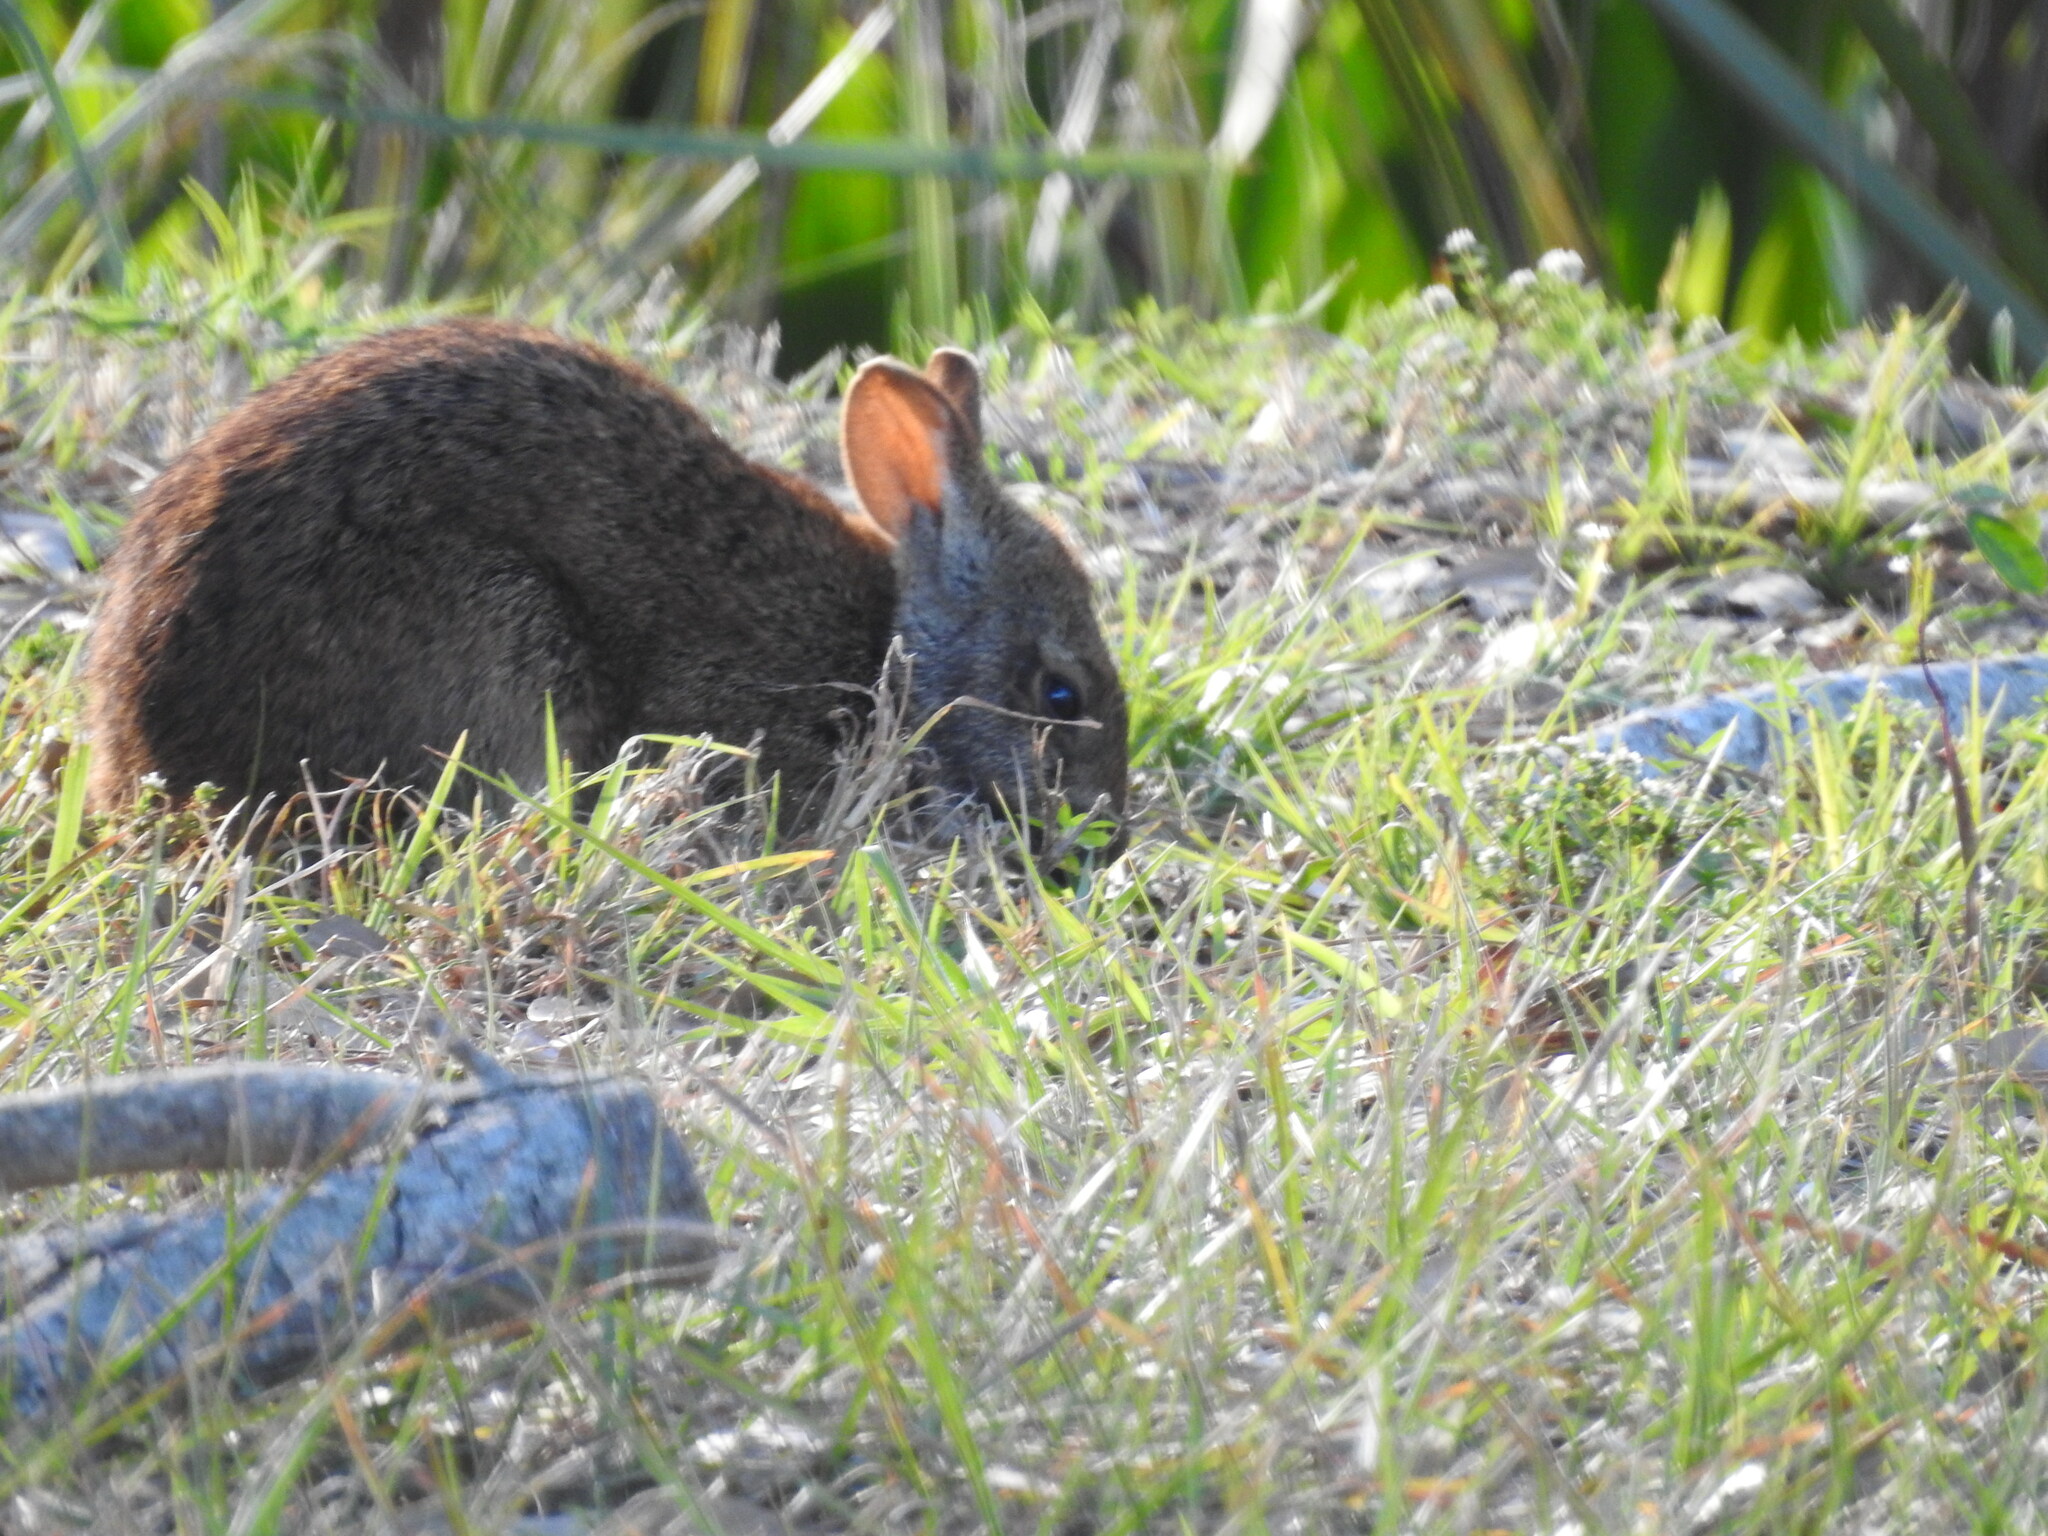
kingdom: Animalia
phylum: Chordata
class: Mammalia
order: Lagomorpha
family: Leporidae
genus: Sylvilagus
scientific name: Sylvilagus palustris
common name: Marsh rabbit
